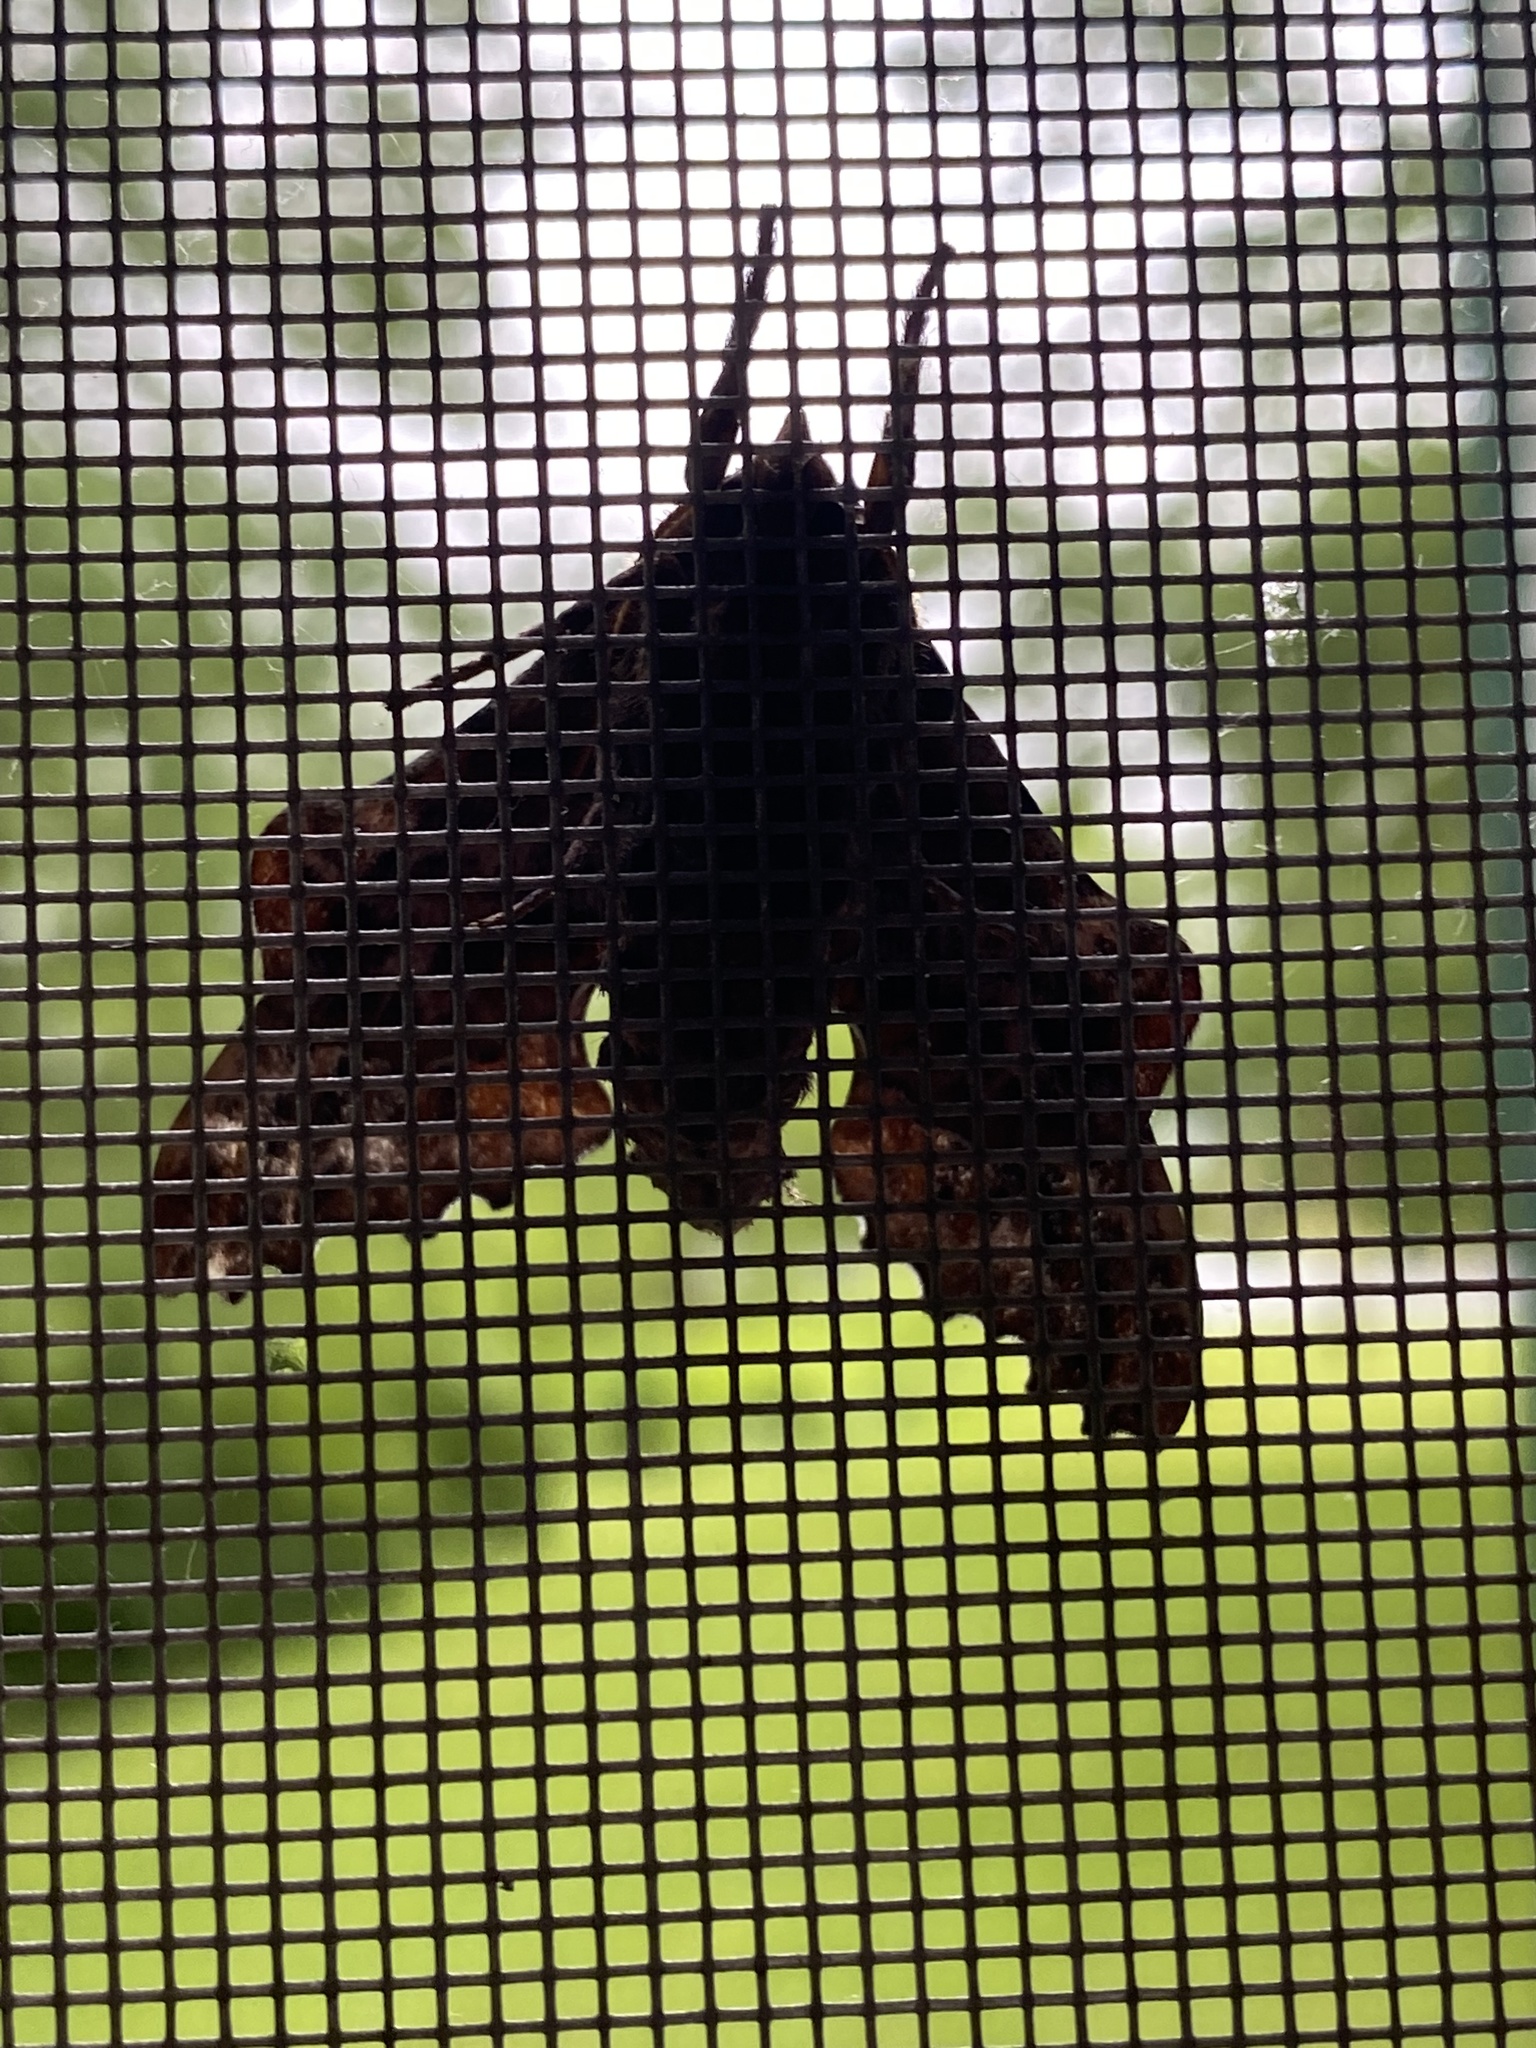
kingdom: Animalia
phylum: Arthropoda
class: Insecta
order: Lepidoptera
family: Sphingidae
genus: Paonias
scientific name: Paonias excaecata
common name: Blind-eyed sphinx
